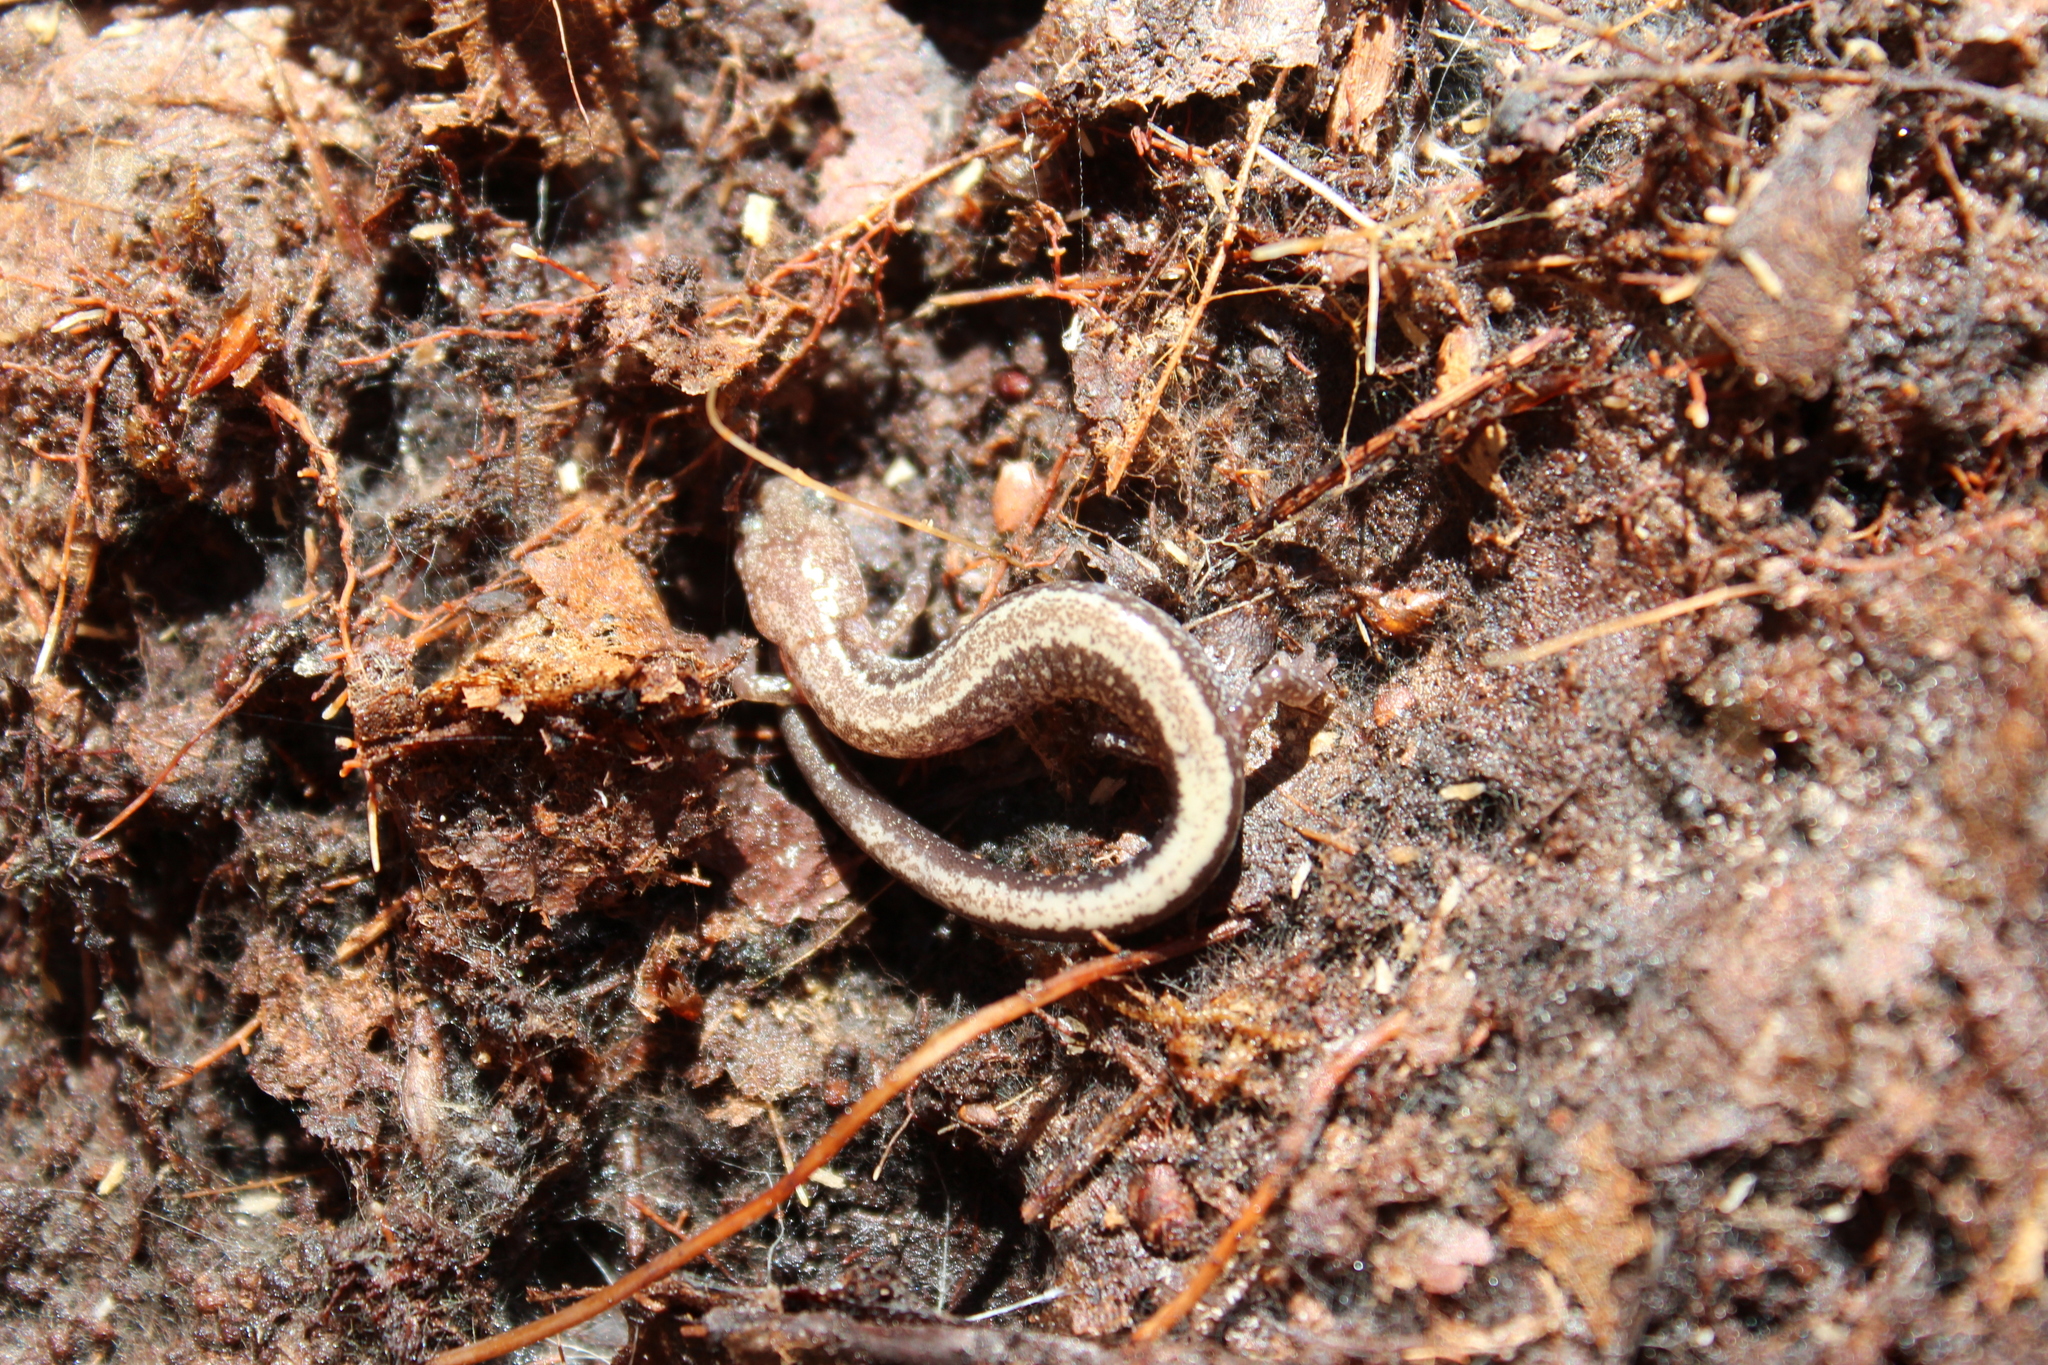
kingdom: Animalia
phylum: Chordata
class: Amphibia
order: Caudata
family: Plethodontidae
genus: Plethodon
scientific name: Plethodon cinereus
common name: Redback salamander
